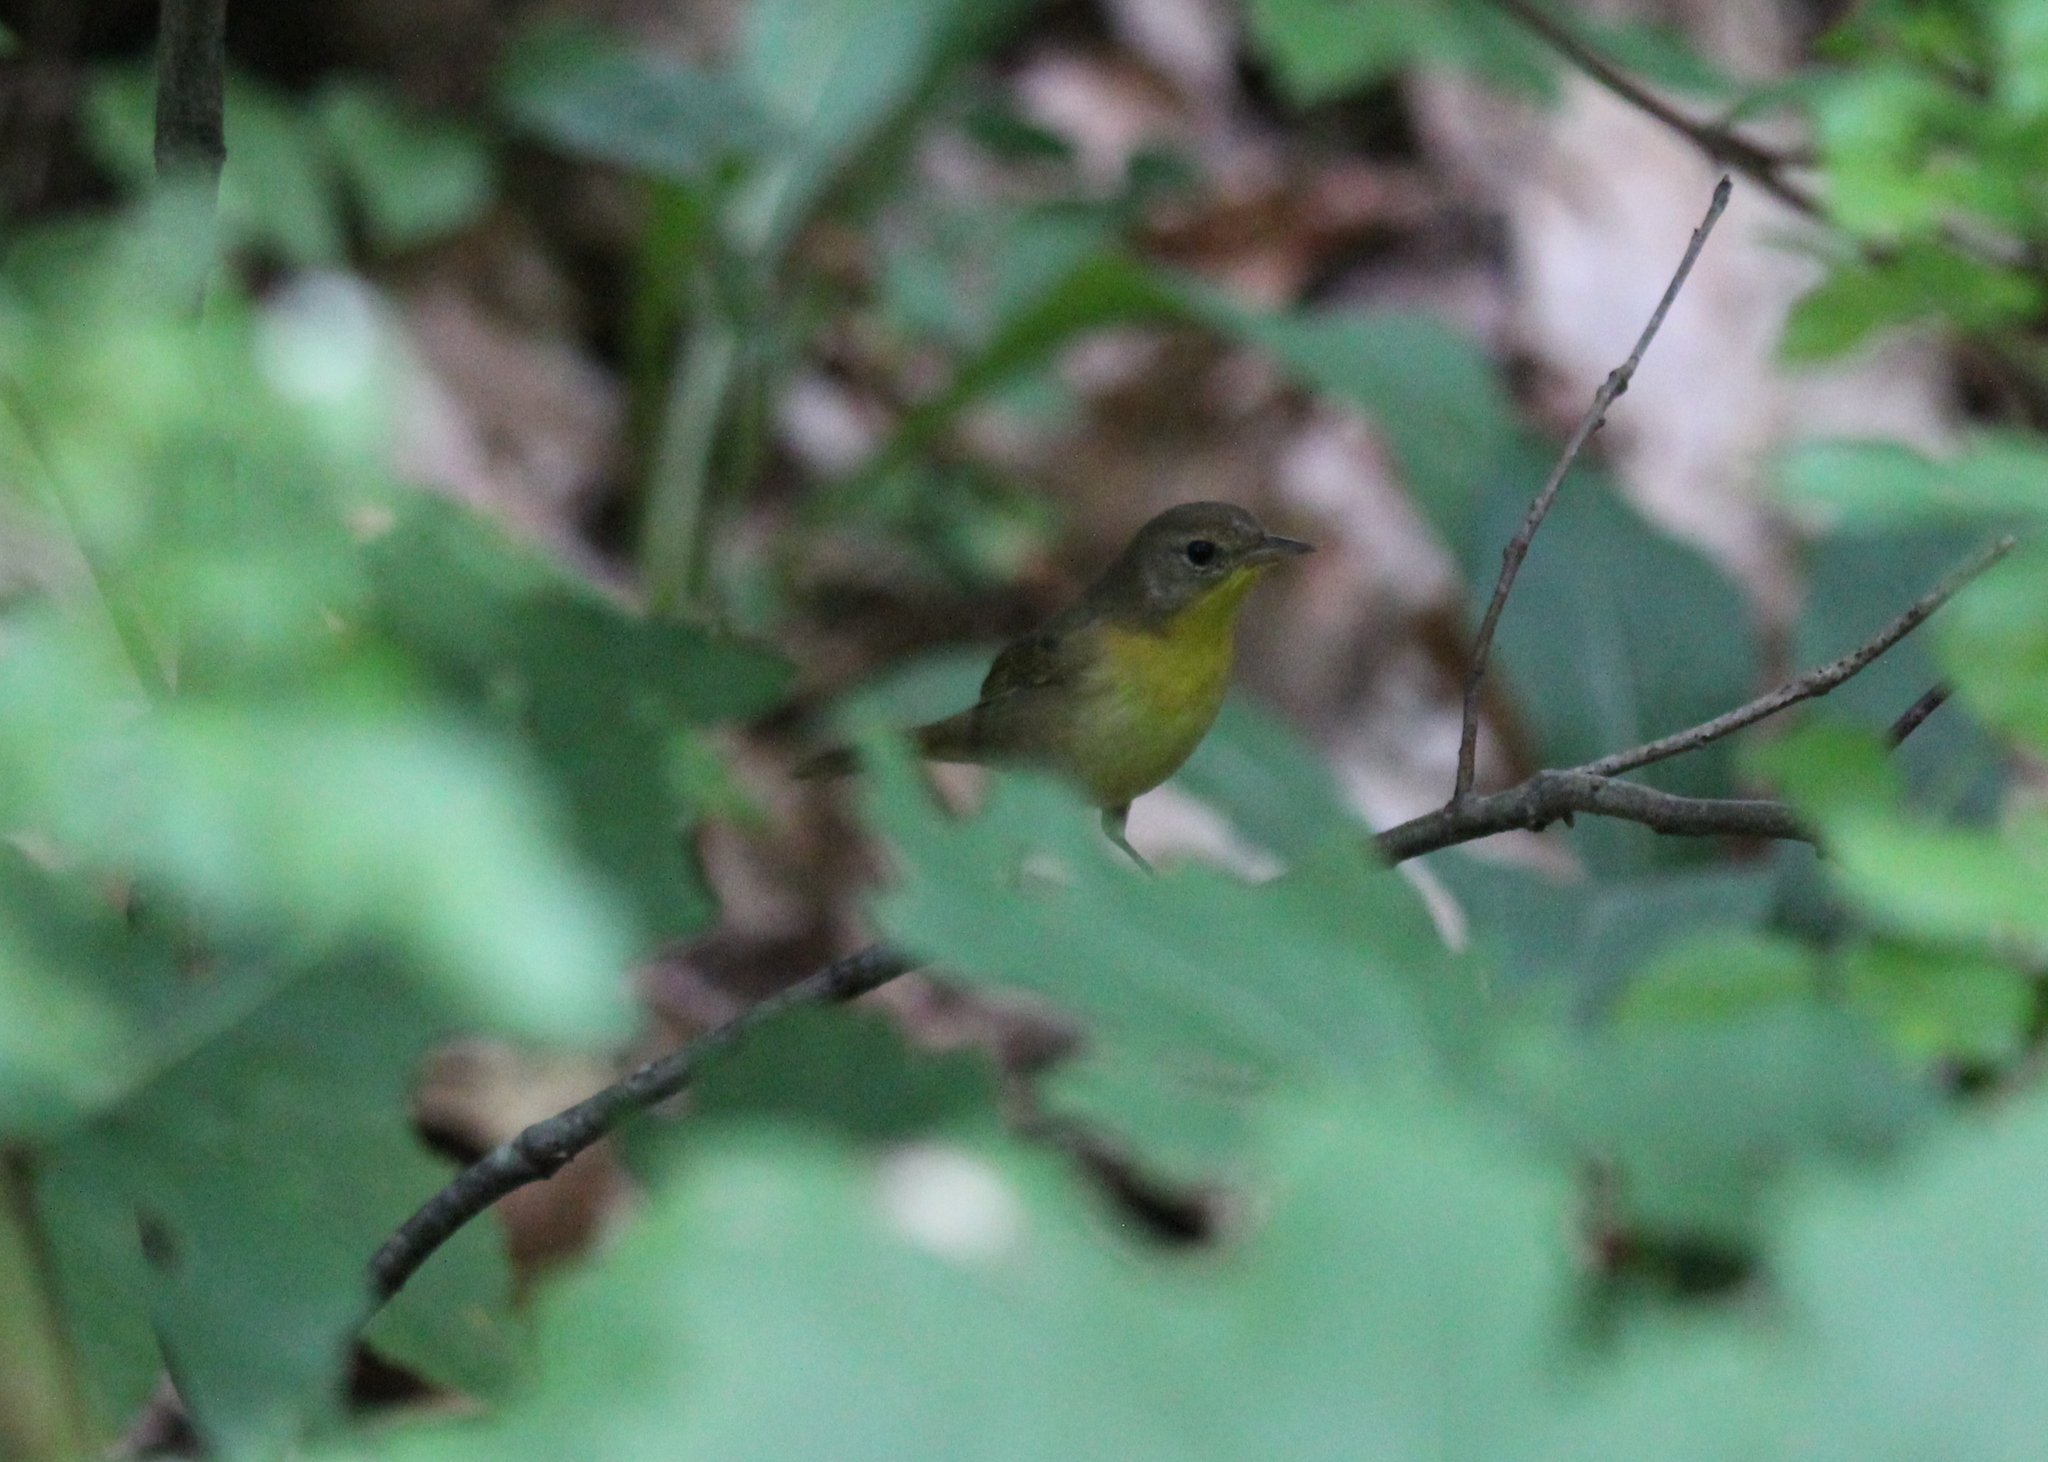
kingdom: Animalia
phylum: Chordata
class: Aves
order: Passeriformes
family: Parulidae
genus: Geothlypis
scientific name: Geothlypis trichas
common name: Common yellowthroat
